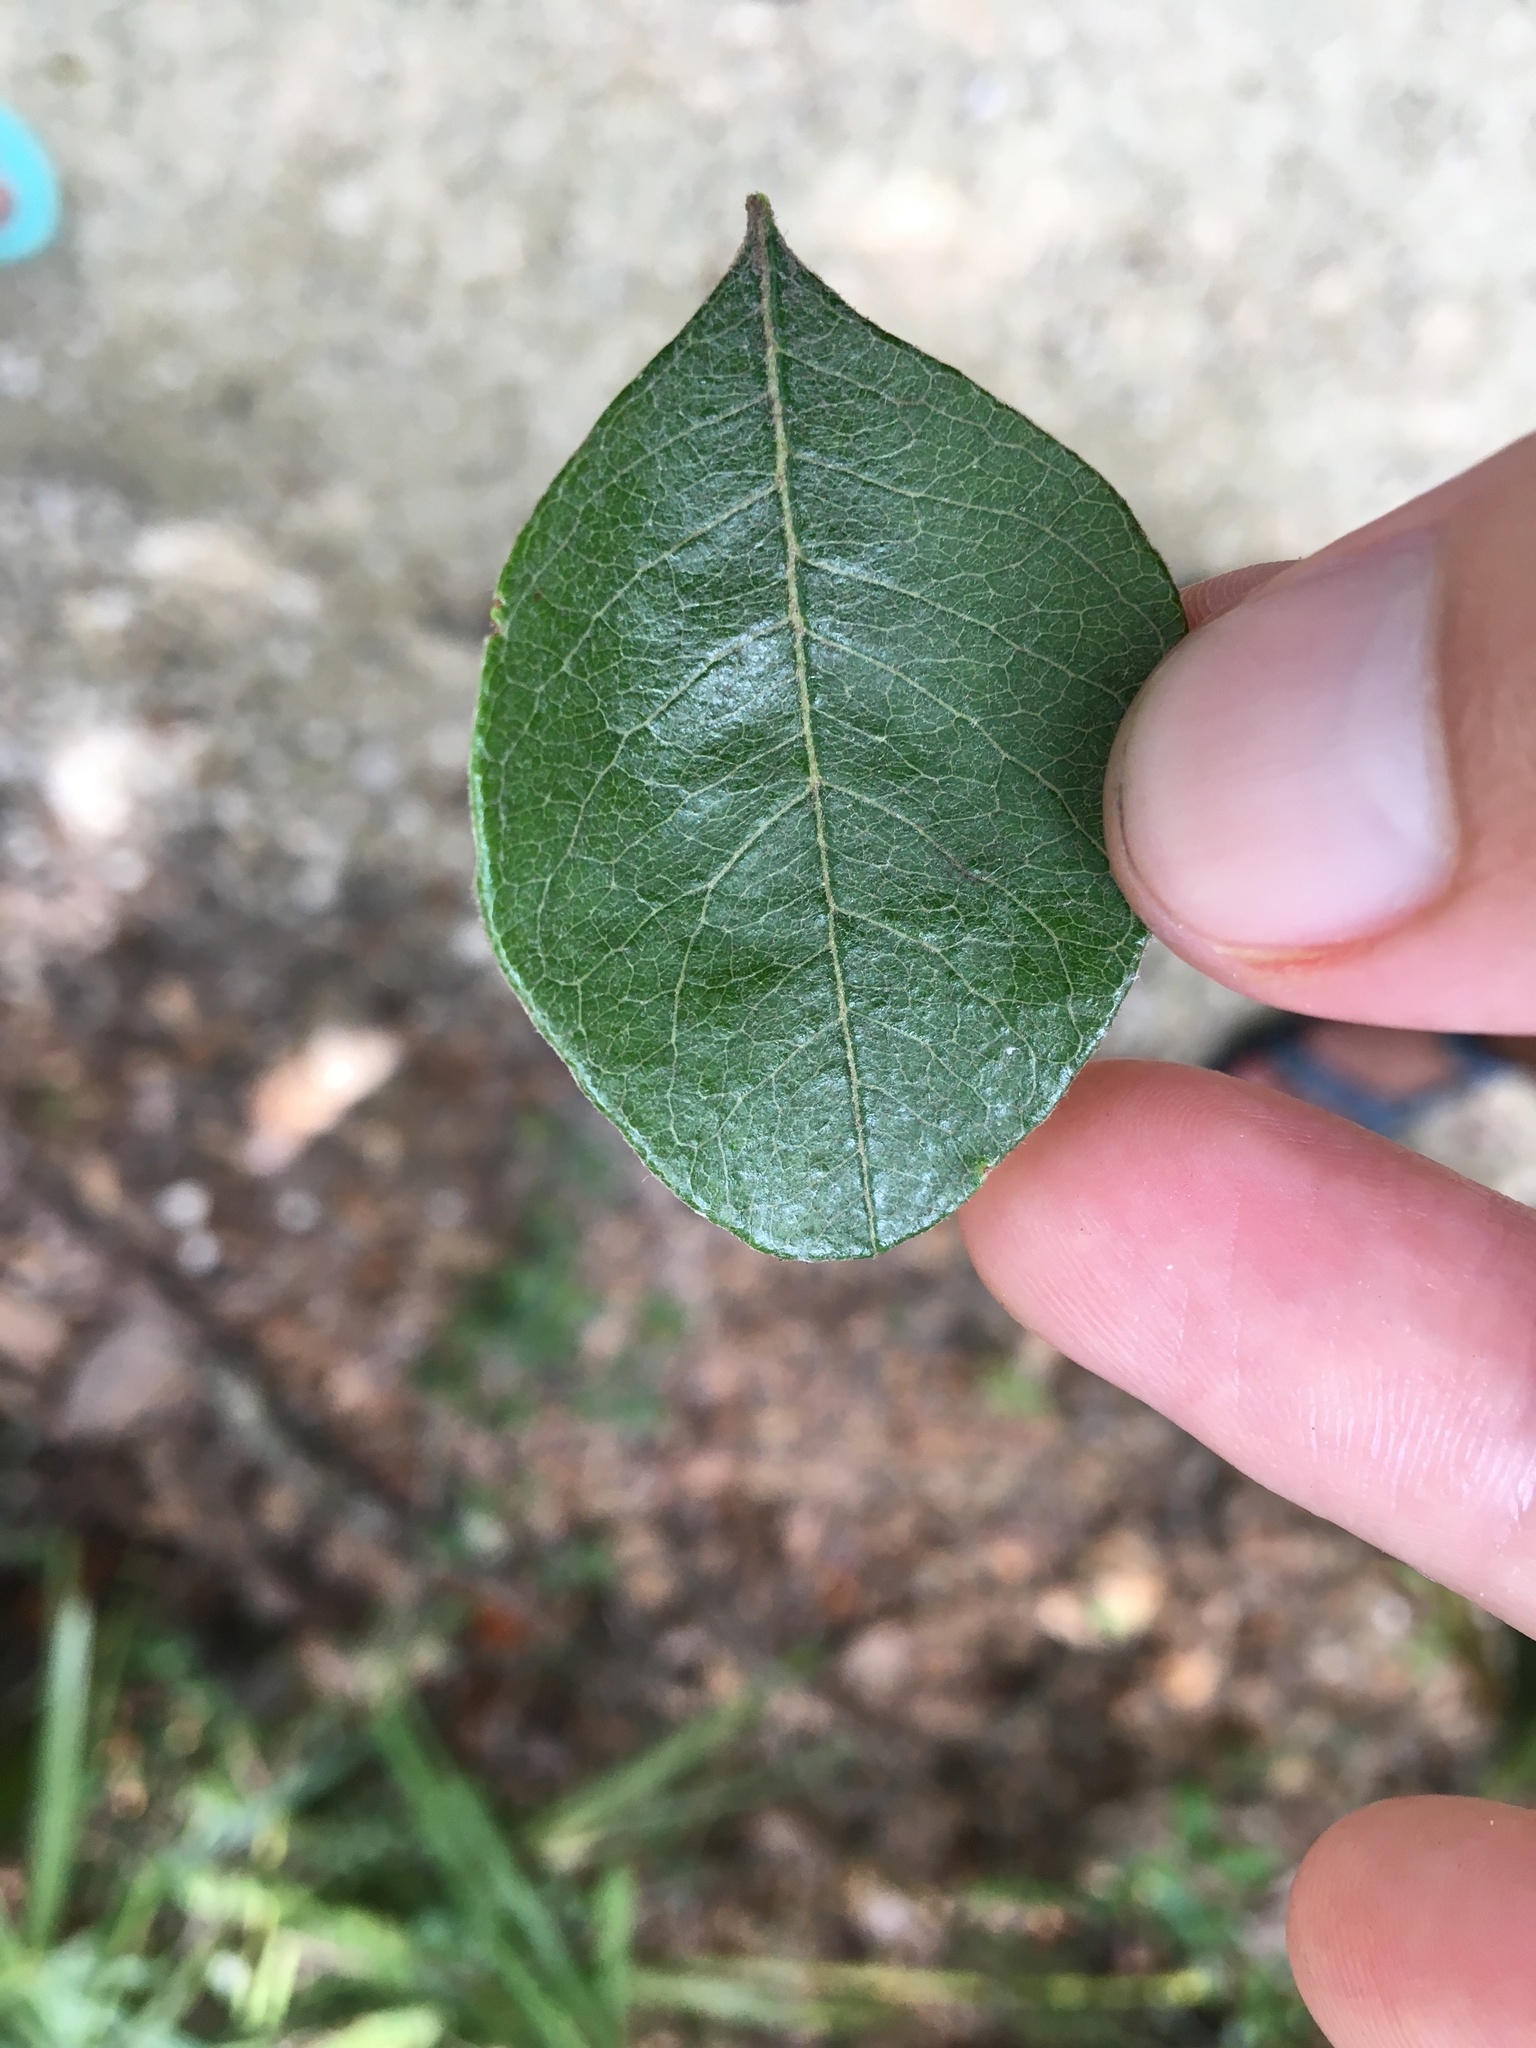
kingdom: Plantae
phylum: Tracheophyta
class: Magnoliopsida
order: Ericales
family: Sapotaceae
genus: Sideroxylon
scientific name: Sideroxylon lanuginosum
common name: Chittamwood
